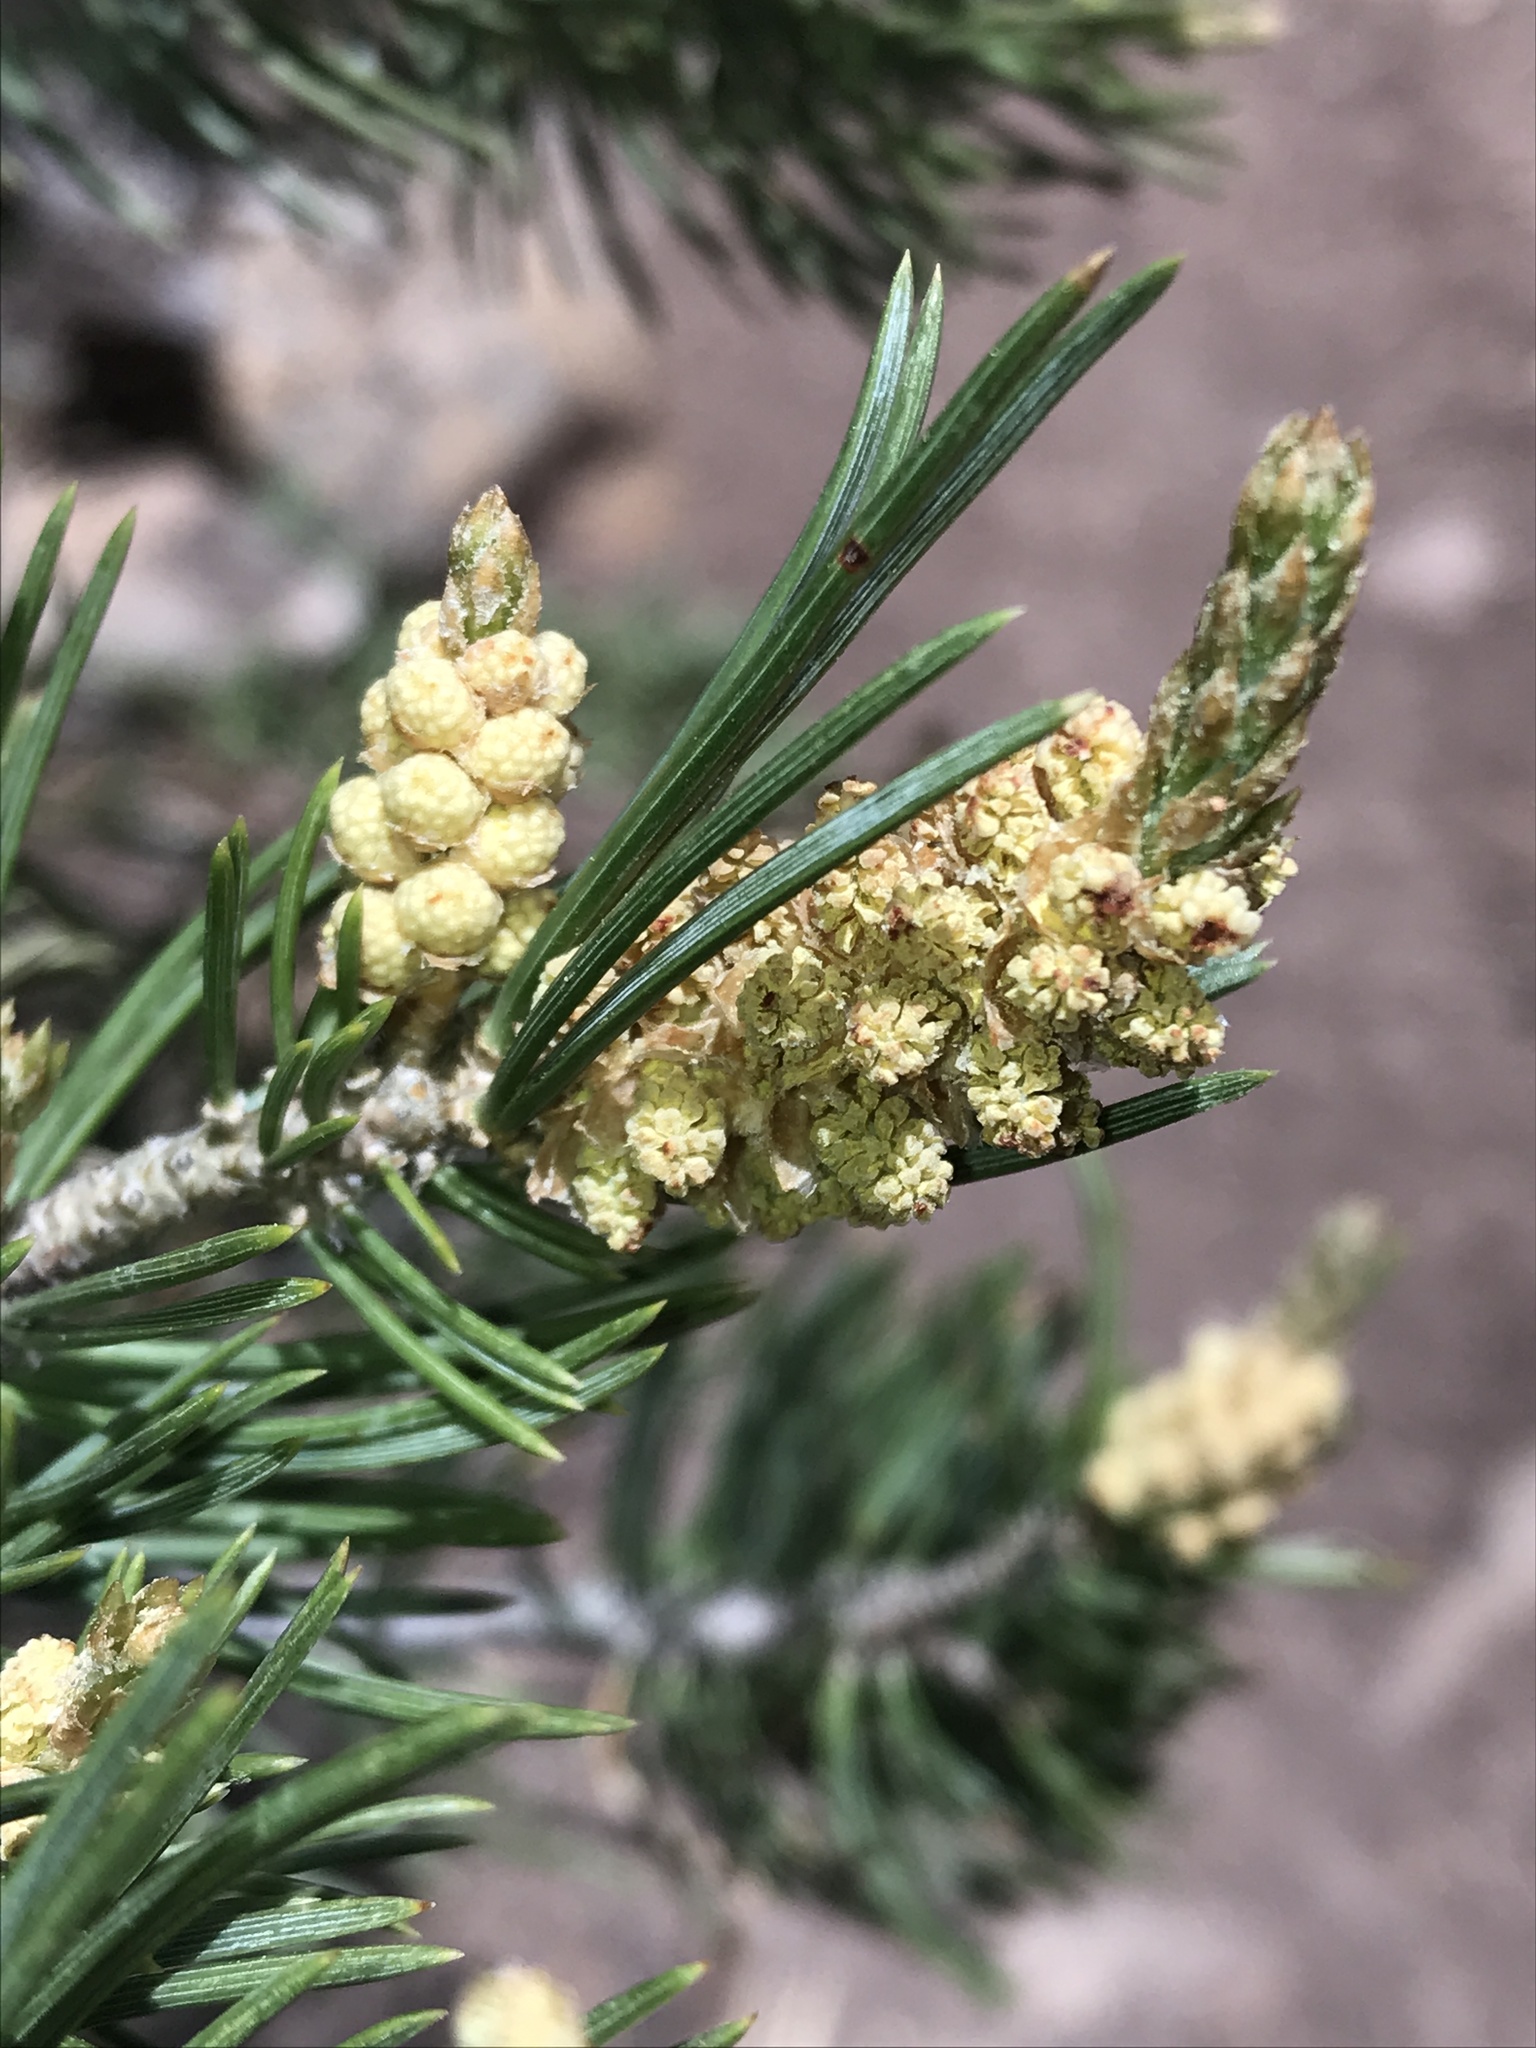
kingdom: Plantae
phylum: Tracheophyta
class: Pinopsida
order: Pinales
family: Pinaceae
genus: Pinus
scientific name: Pinus edulis
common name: Colorado pinyon
